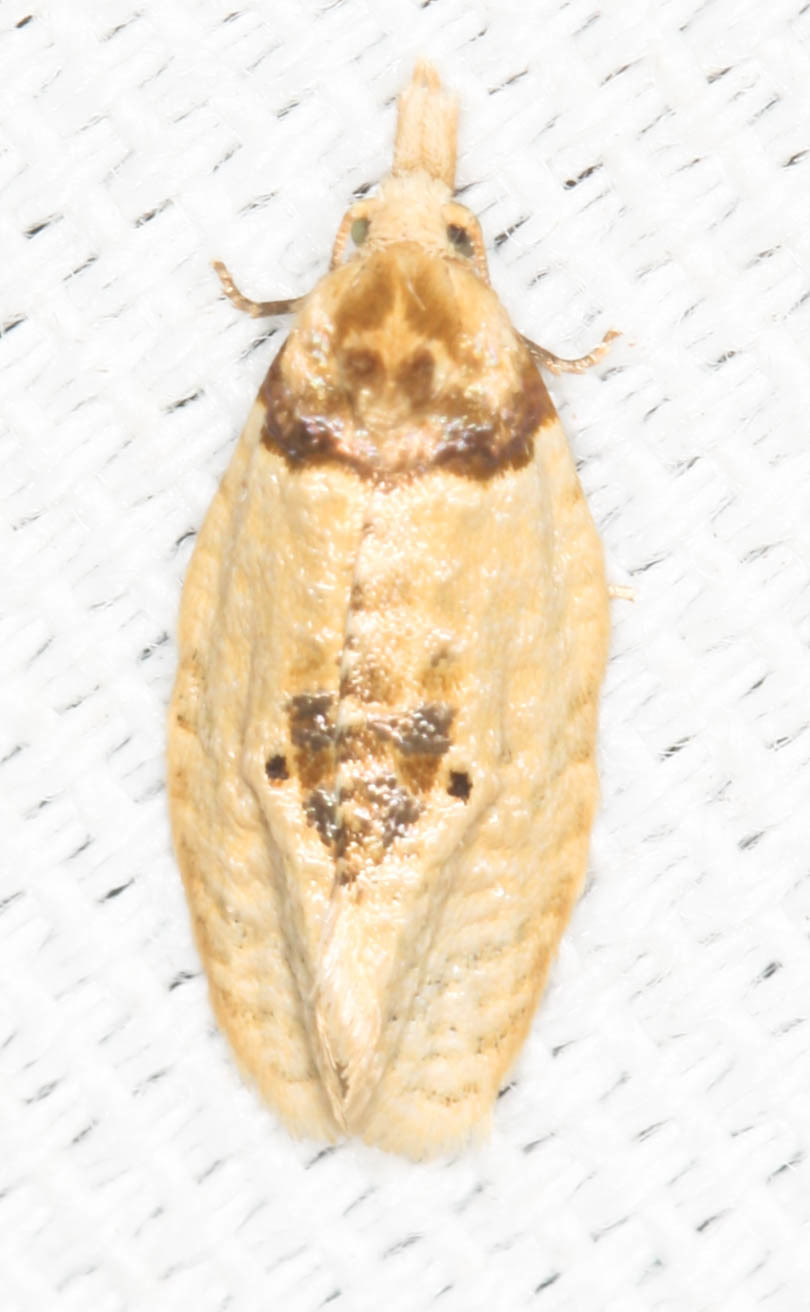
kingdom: Animalia
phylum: Arthropoda
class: Insecta
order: Lepidoptera
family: Tortricidae
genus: Henricus
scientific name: Henricus umbrabasana
